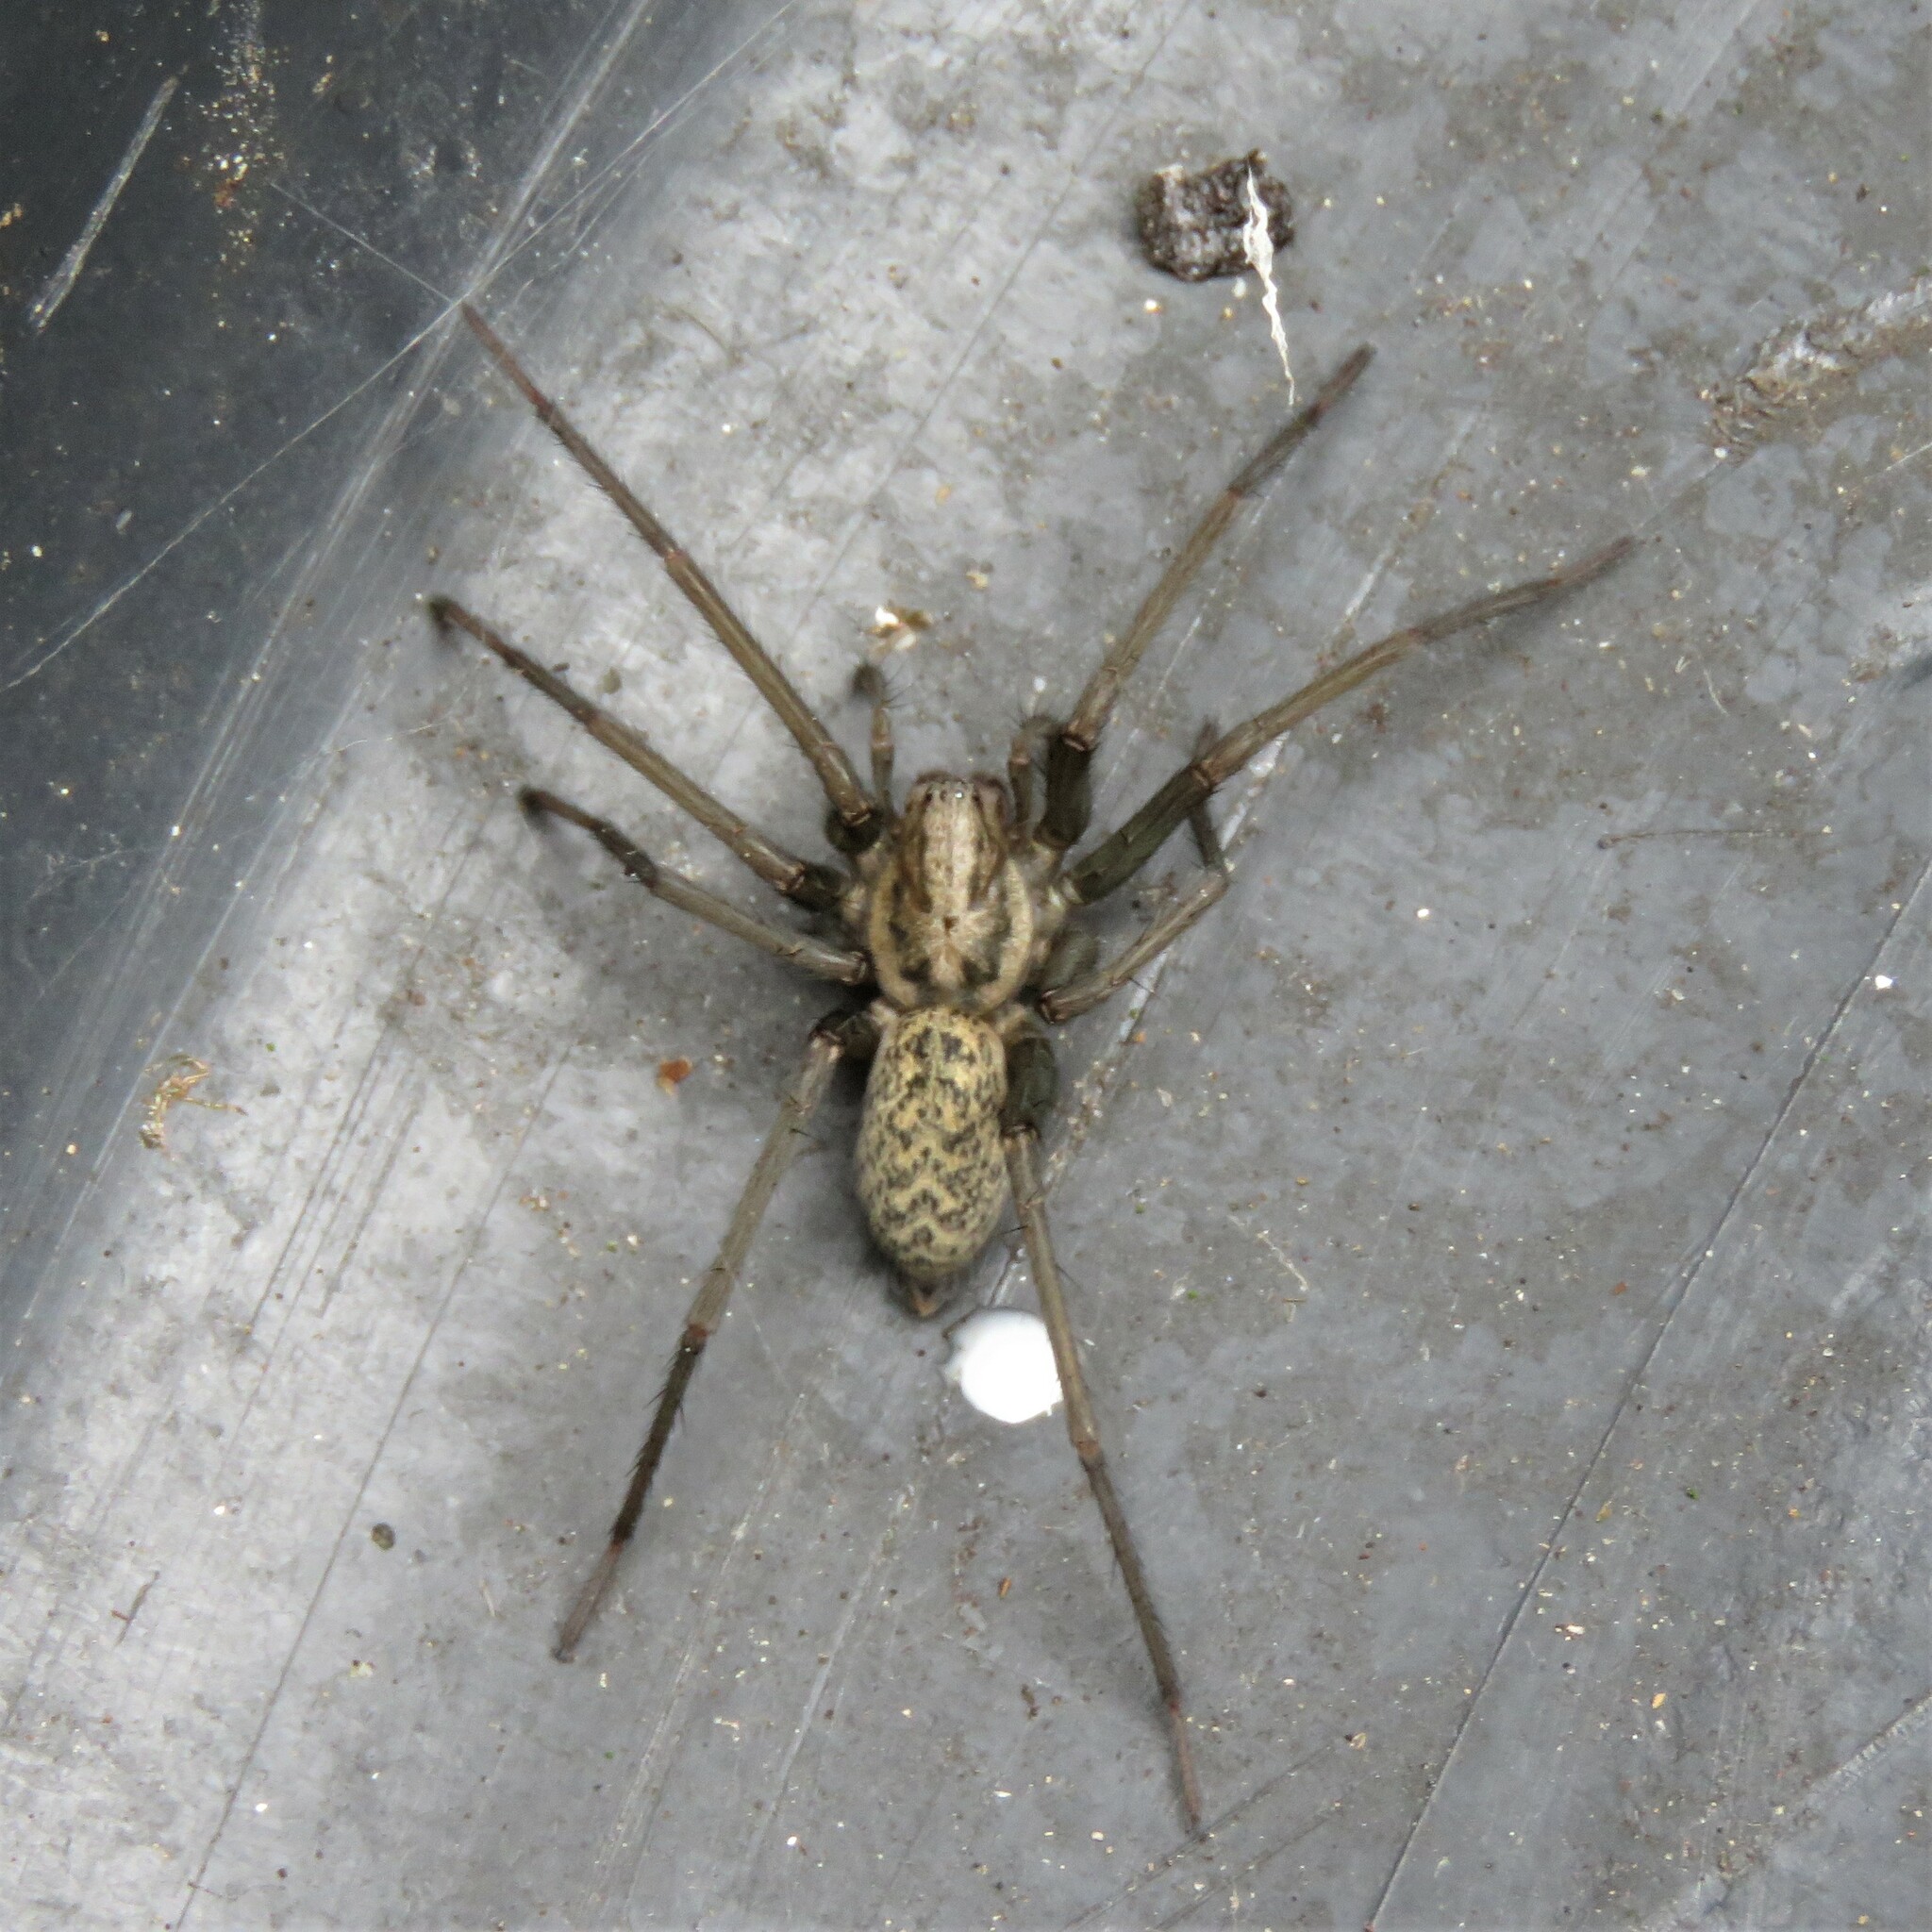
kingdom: Animalia
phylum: Arthropoda
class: Arachnida
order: Araneae
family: Agelenidae
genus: Eratigena
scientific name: Eratigena atrica
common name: Giant house spider
